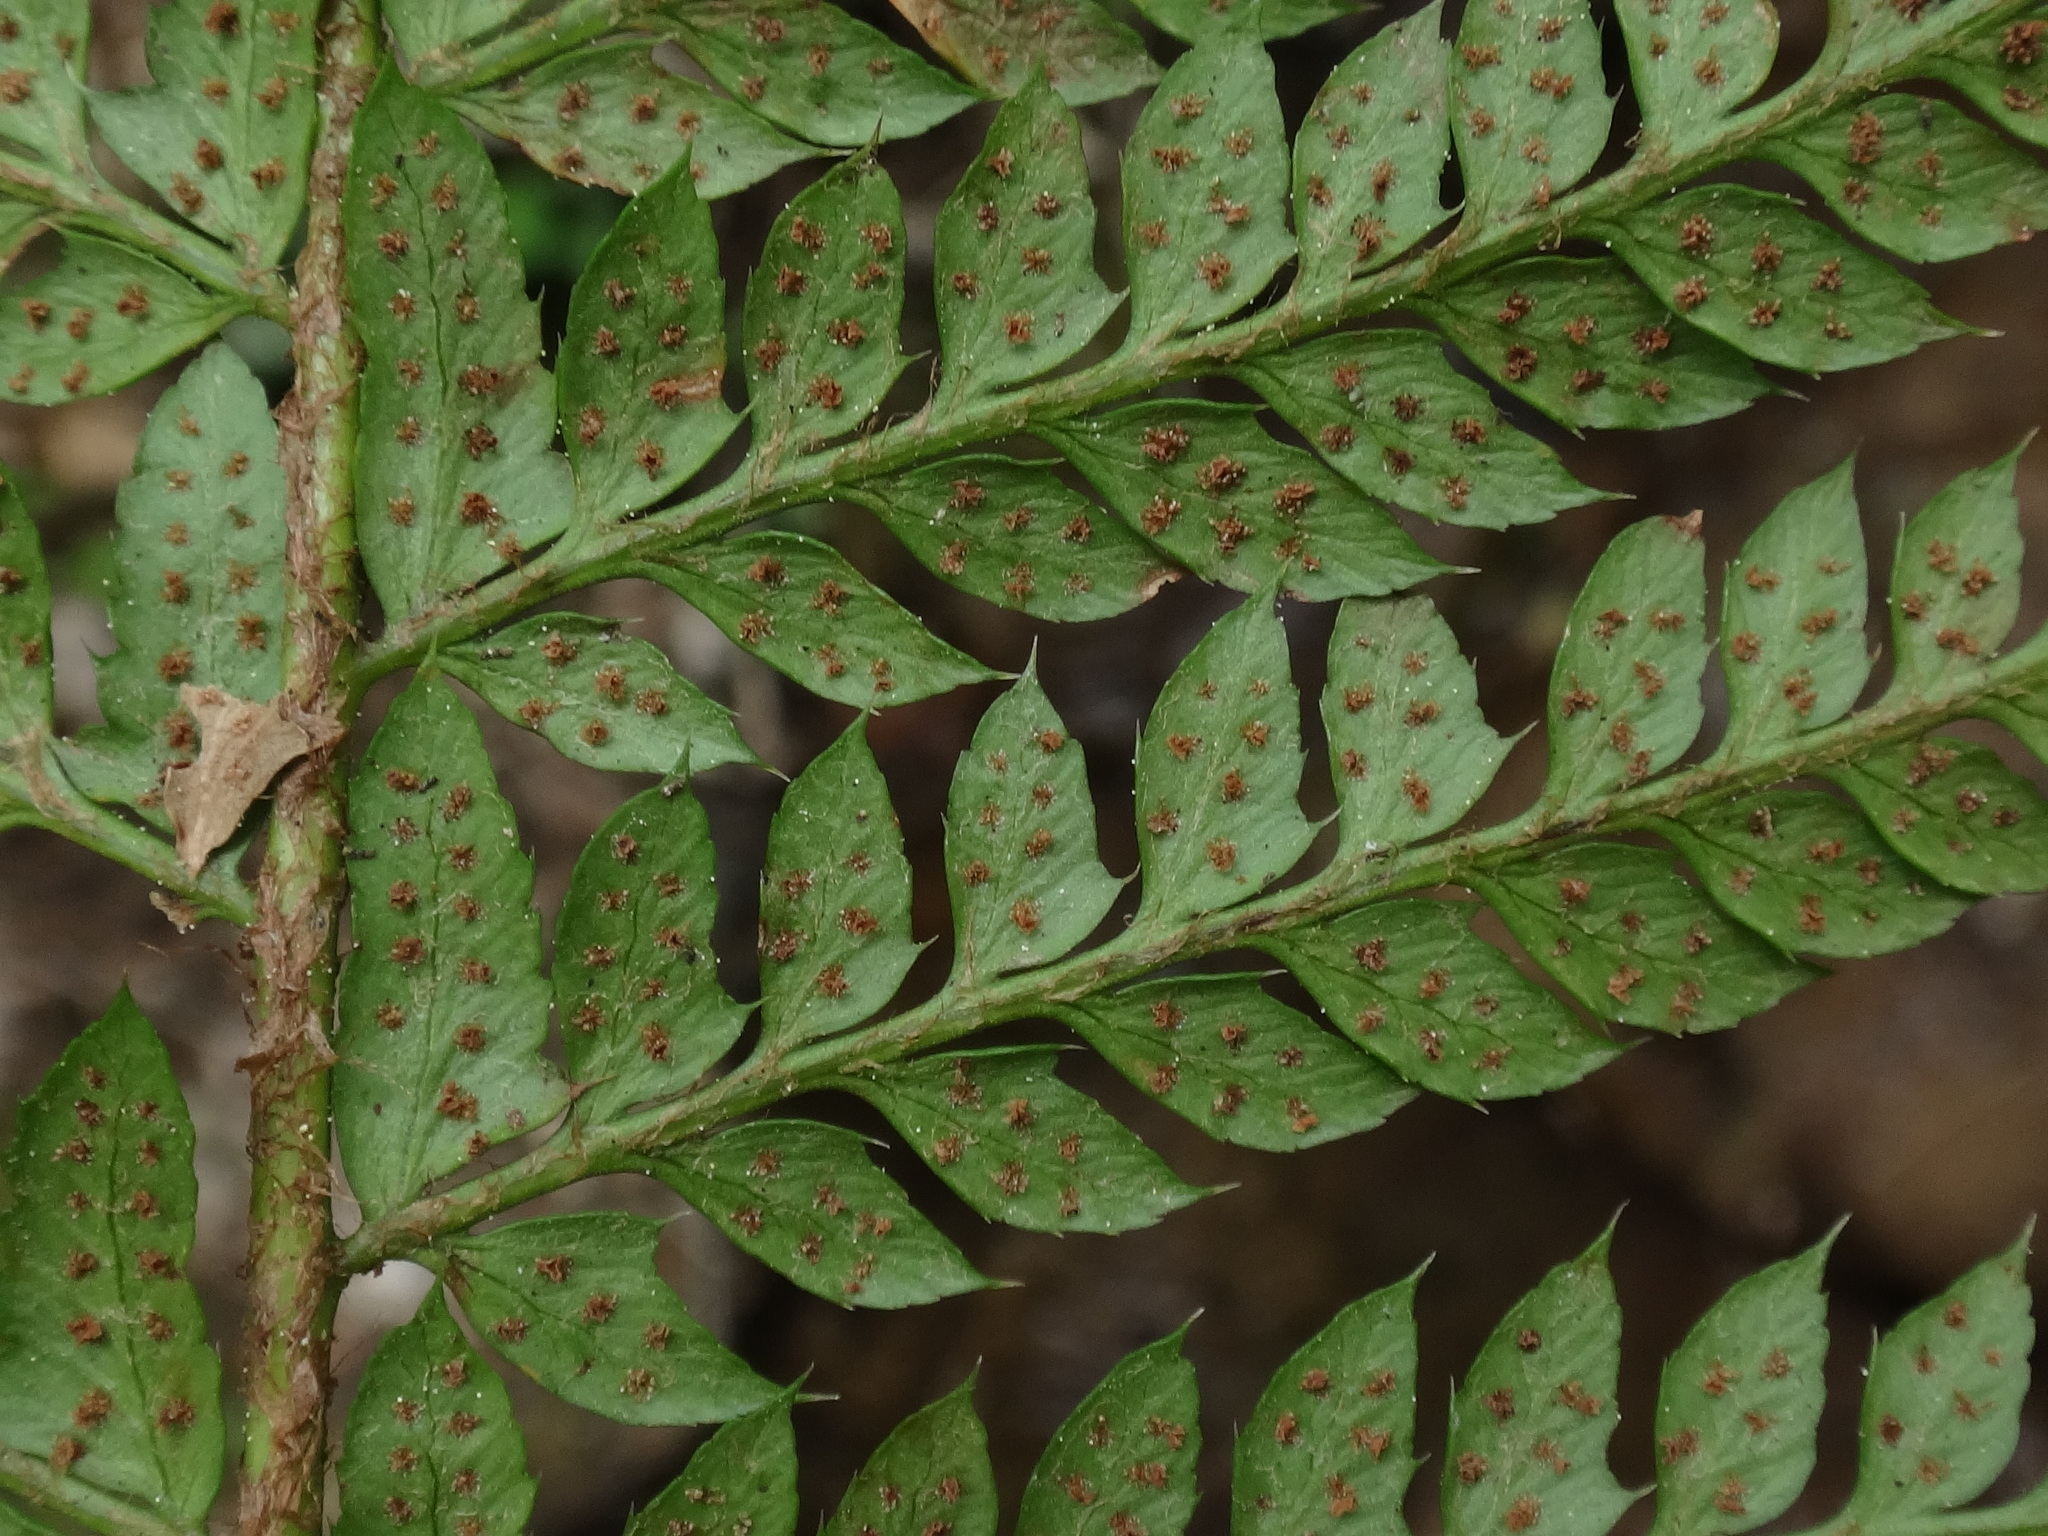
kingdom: Plantae
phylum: Tracheophyta
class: Polypodiopsida
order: Polypodiales
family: Dryopteridaceae
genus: Polystichum
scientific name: Polystichum aculeatum
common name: Hard shield-fern
